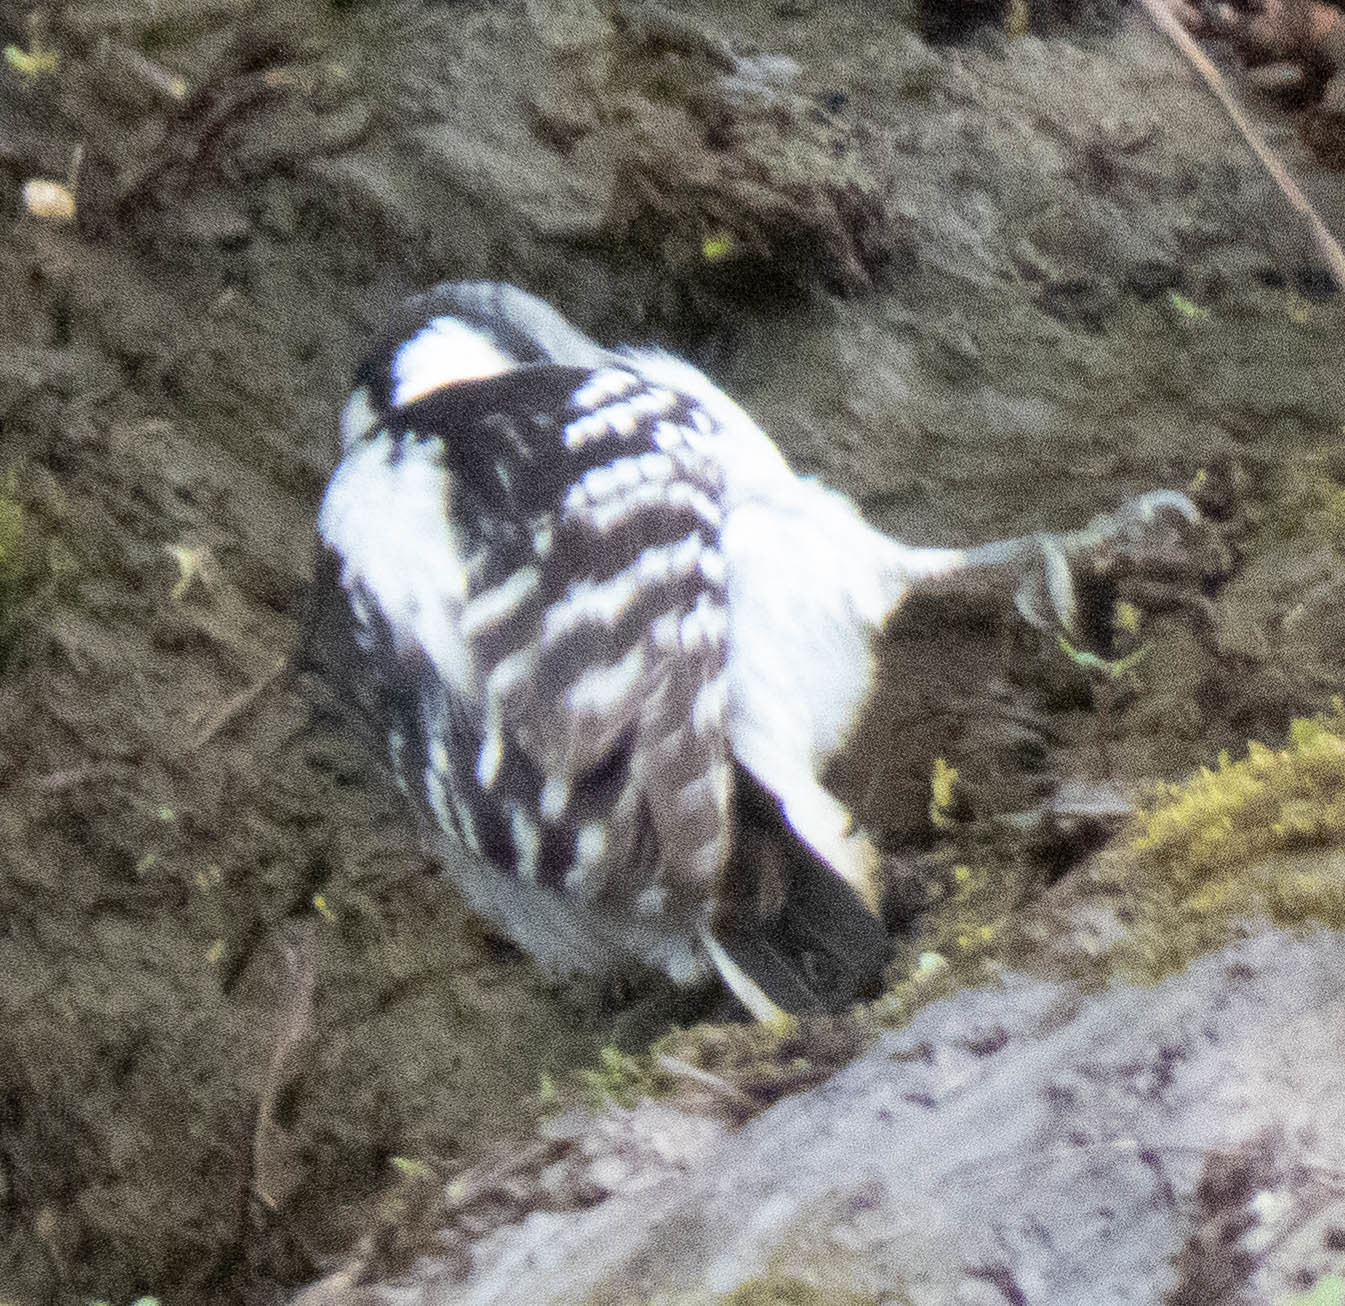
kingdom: Animalia
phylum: Chordata
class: Aves
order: Piciformes
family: Picidae
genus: Dryobates
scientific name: Dryobates pubescens
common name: Downy woodpecker
